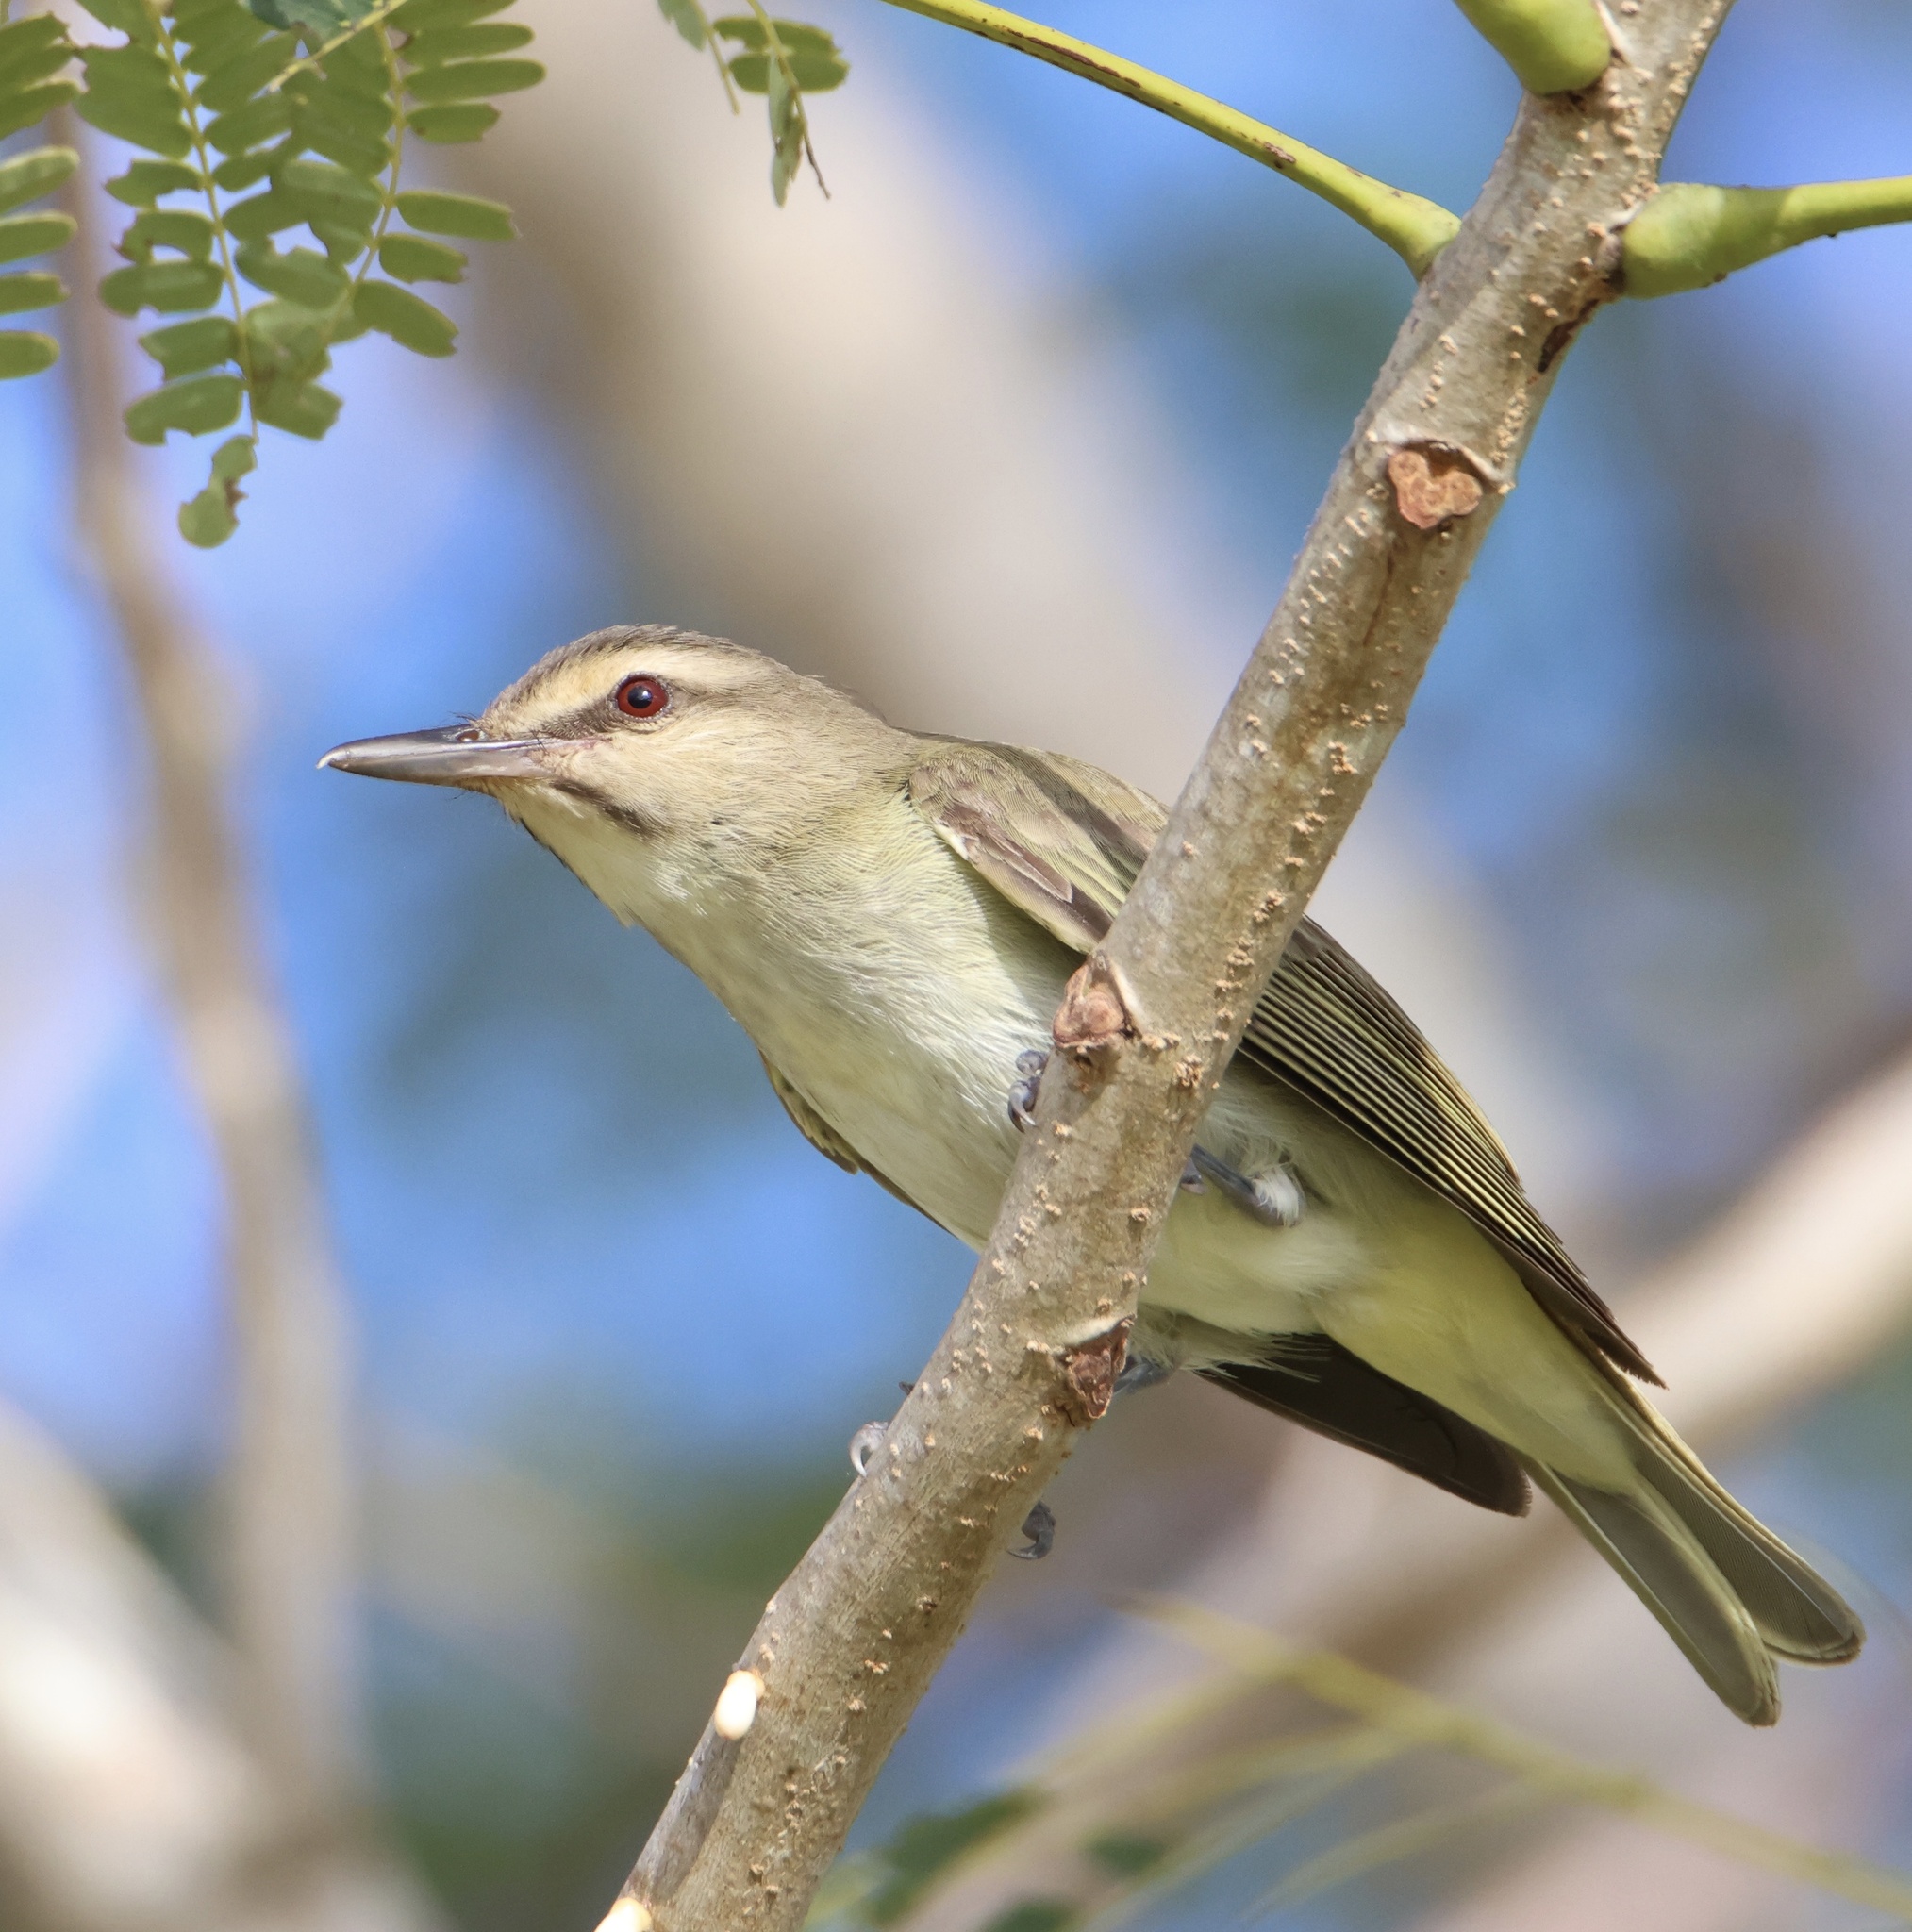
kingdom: Animalia
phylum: Chordata
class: Aves
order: Passeriformes
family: Vireonidae
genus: Vireo
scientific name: Vireo altiloquus
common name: Black-whiskered vireo
